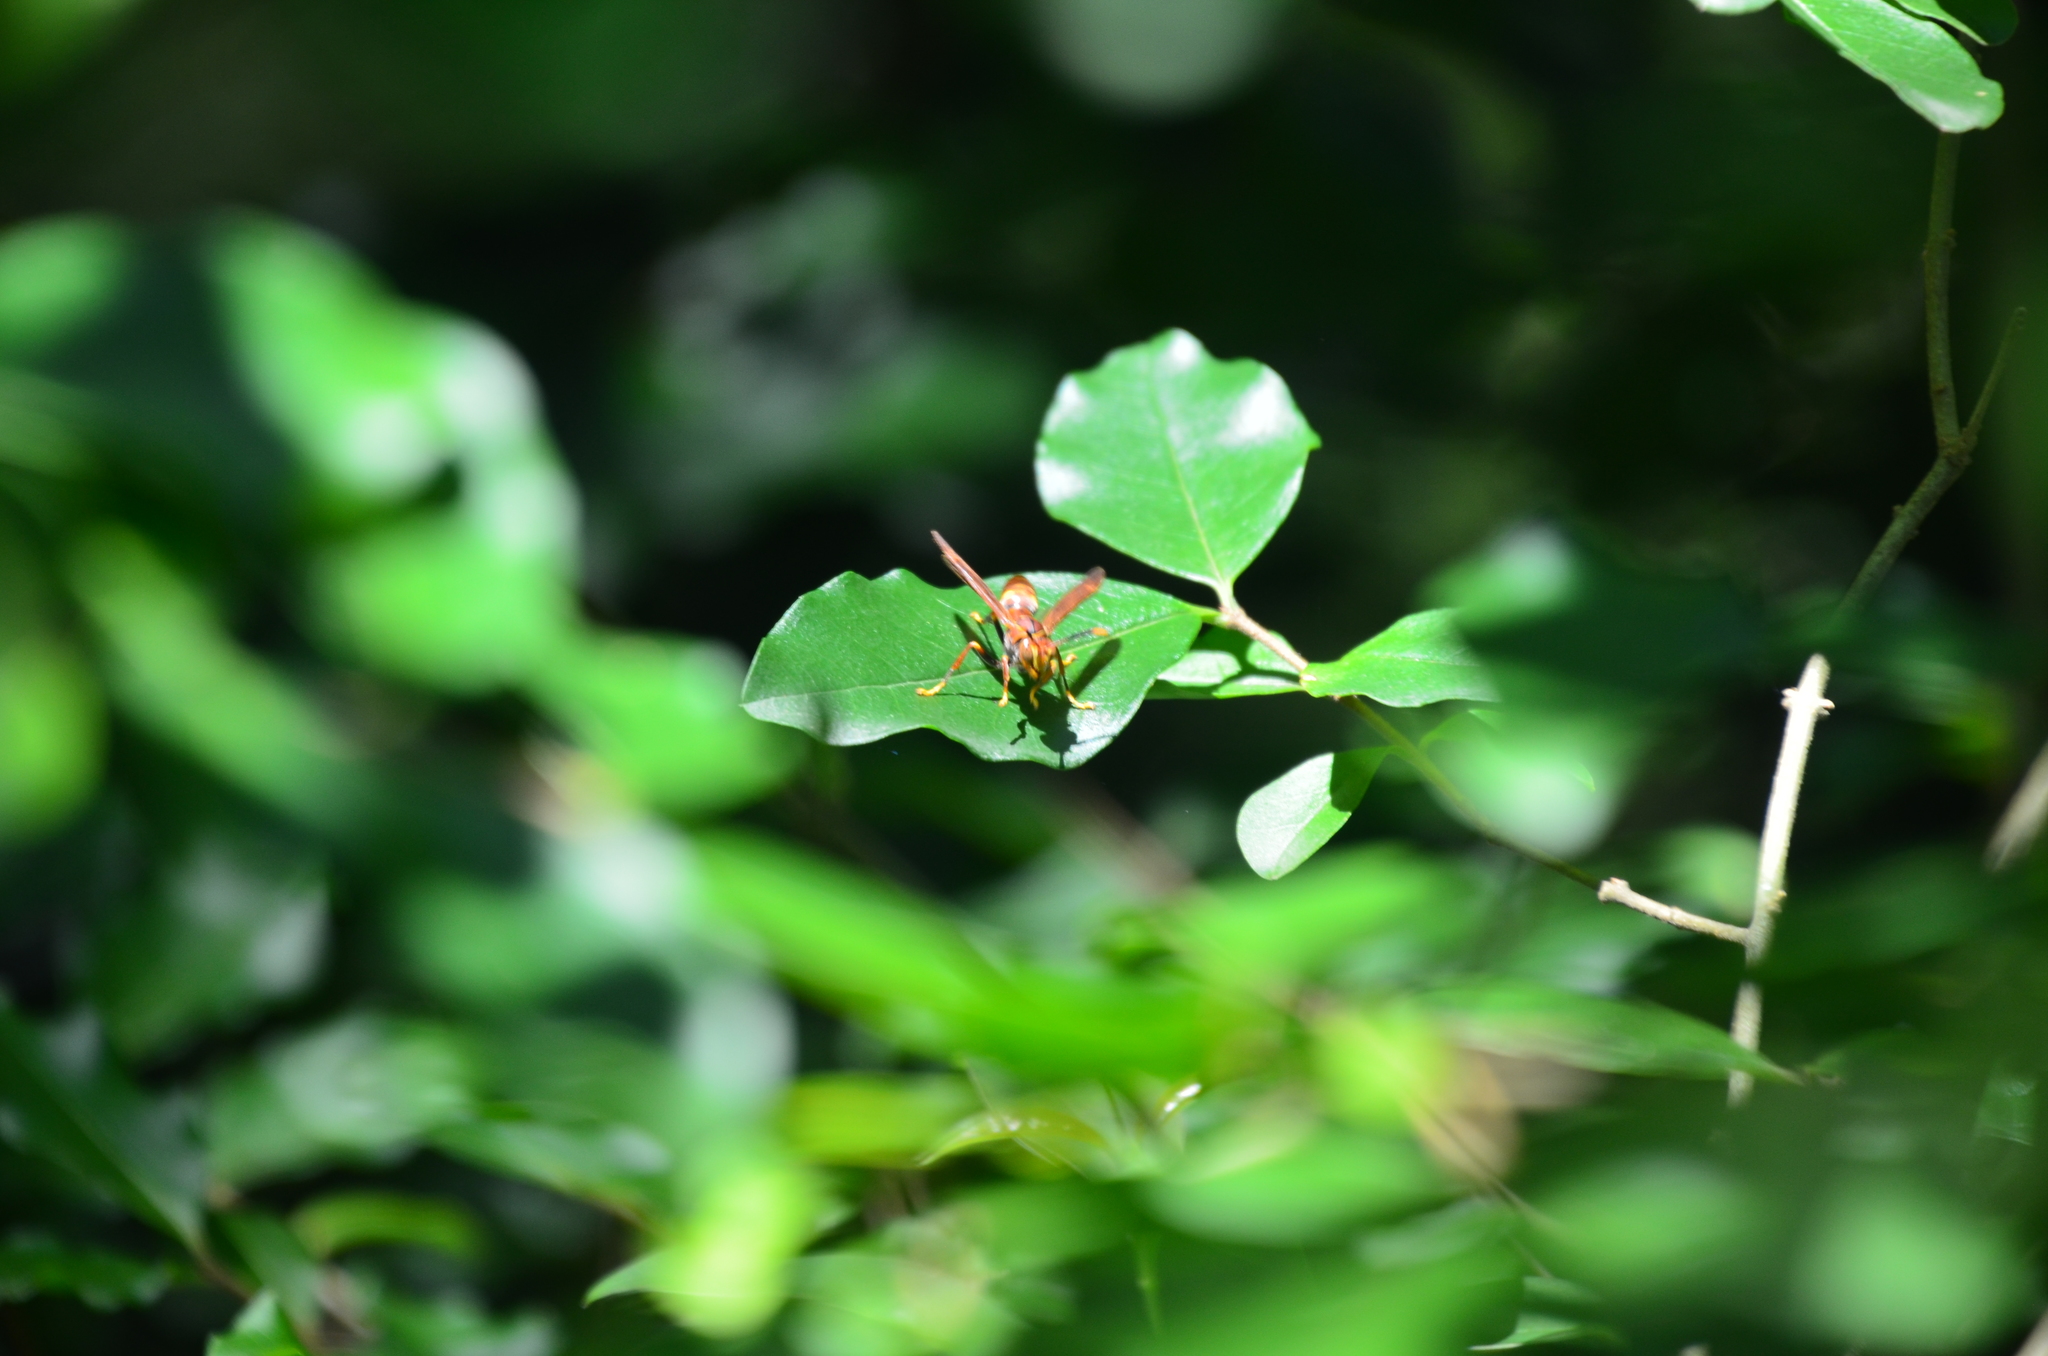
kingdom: Animalia
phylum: Arthropoda
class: Insecta
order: Hymenoptera
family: Eumenidae
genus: Polistes
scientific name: Polistes simillimus
